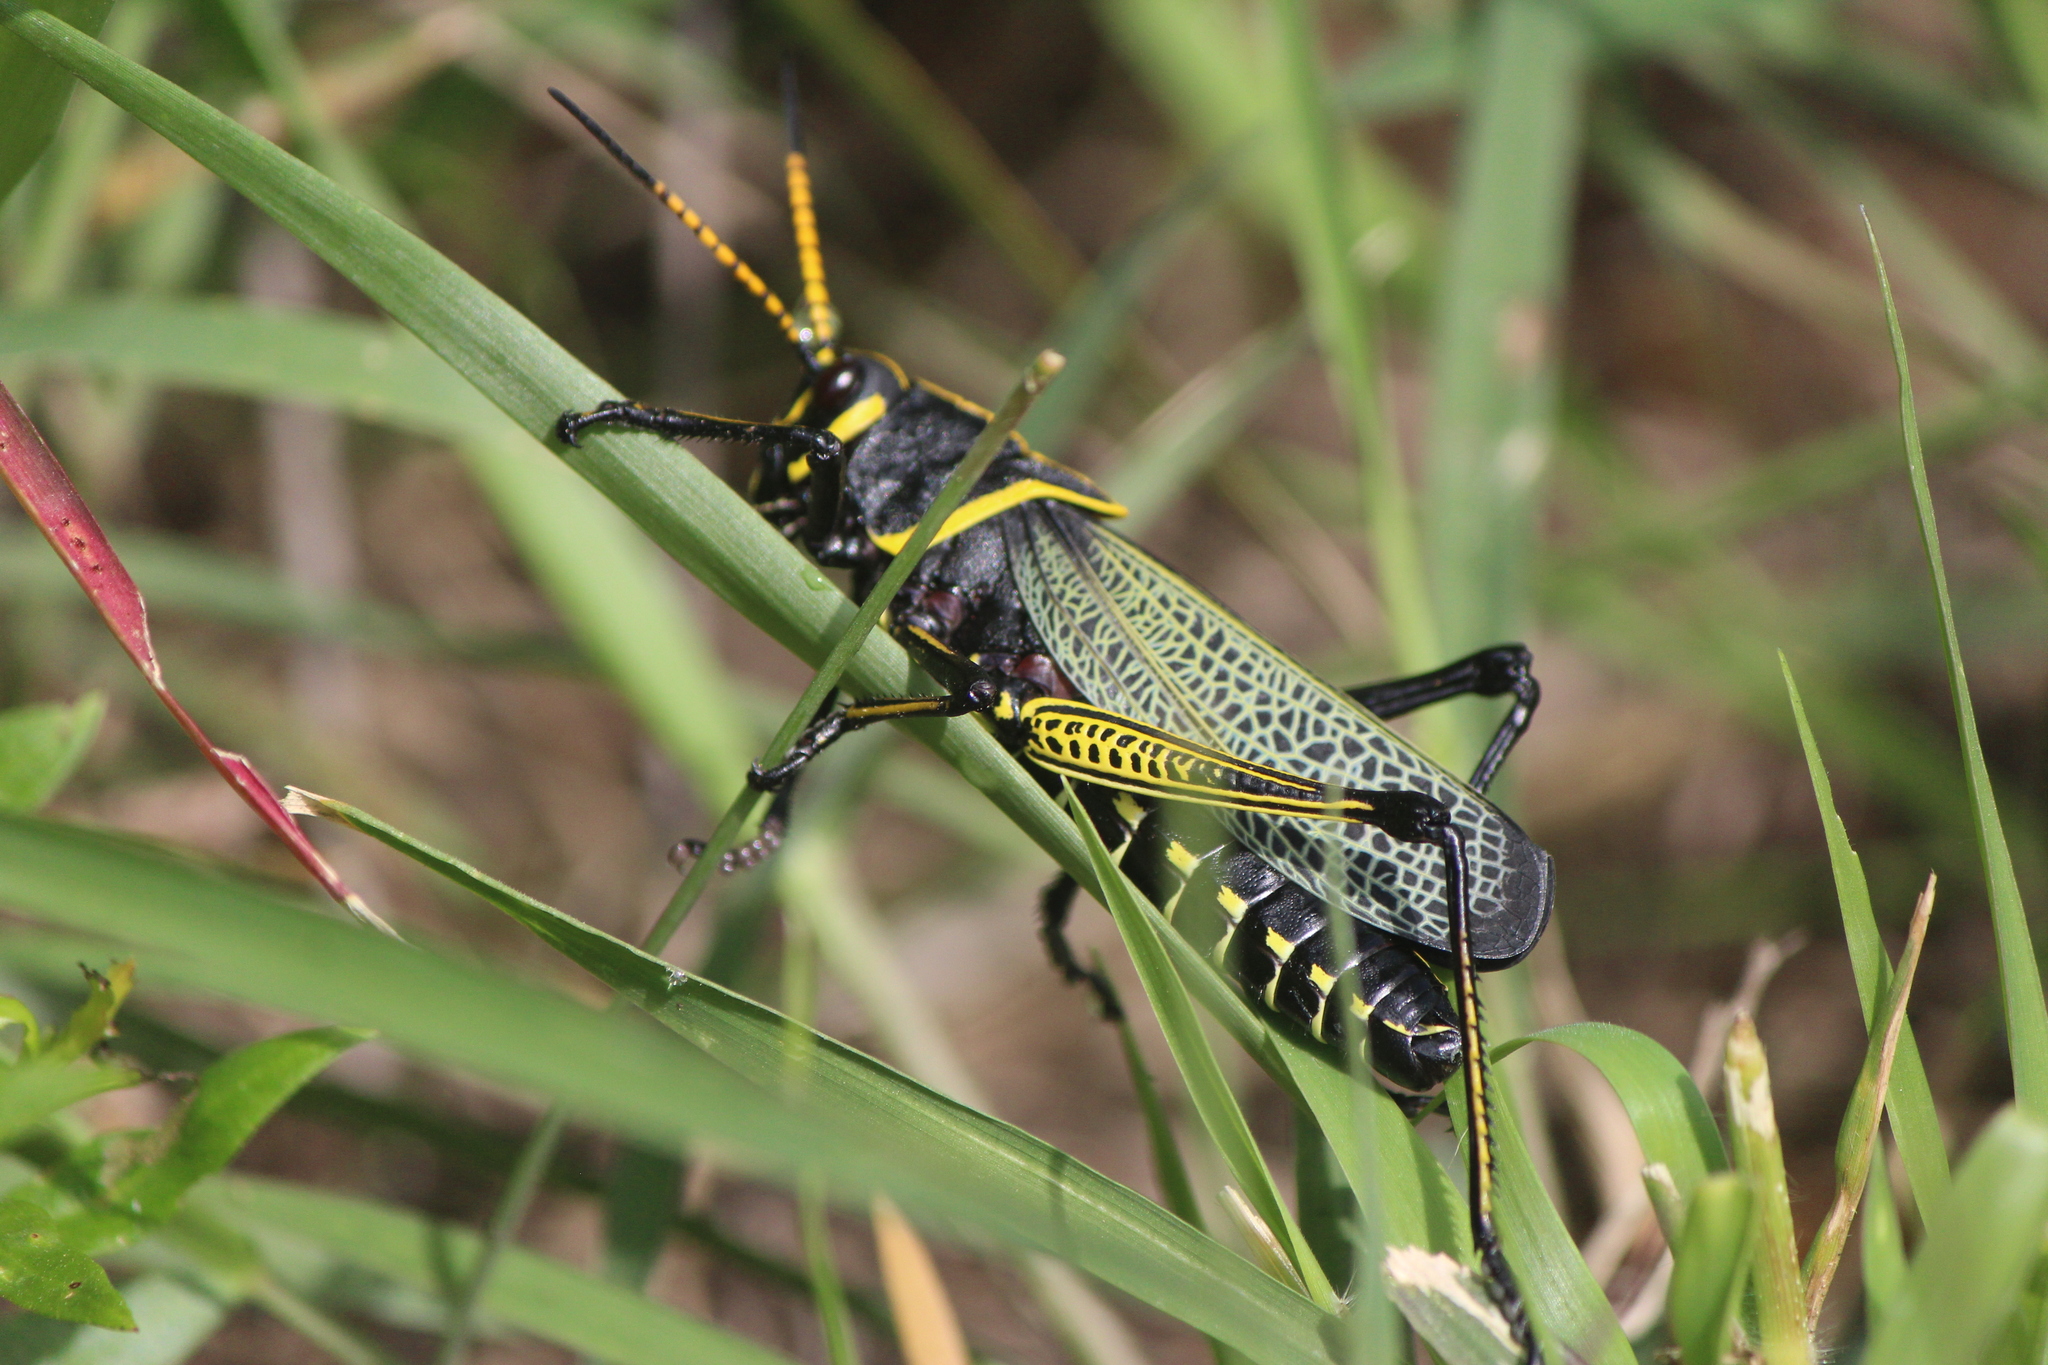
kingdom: Animalia
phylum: Arthropoda
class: Insecta
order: Orthoptera
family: Romaleidae
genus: Romalea
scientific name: Romalea
